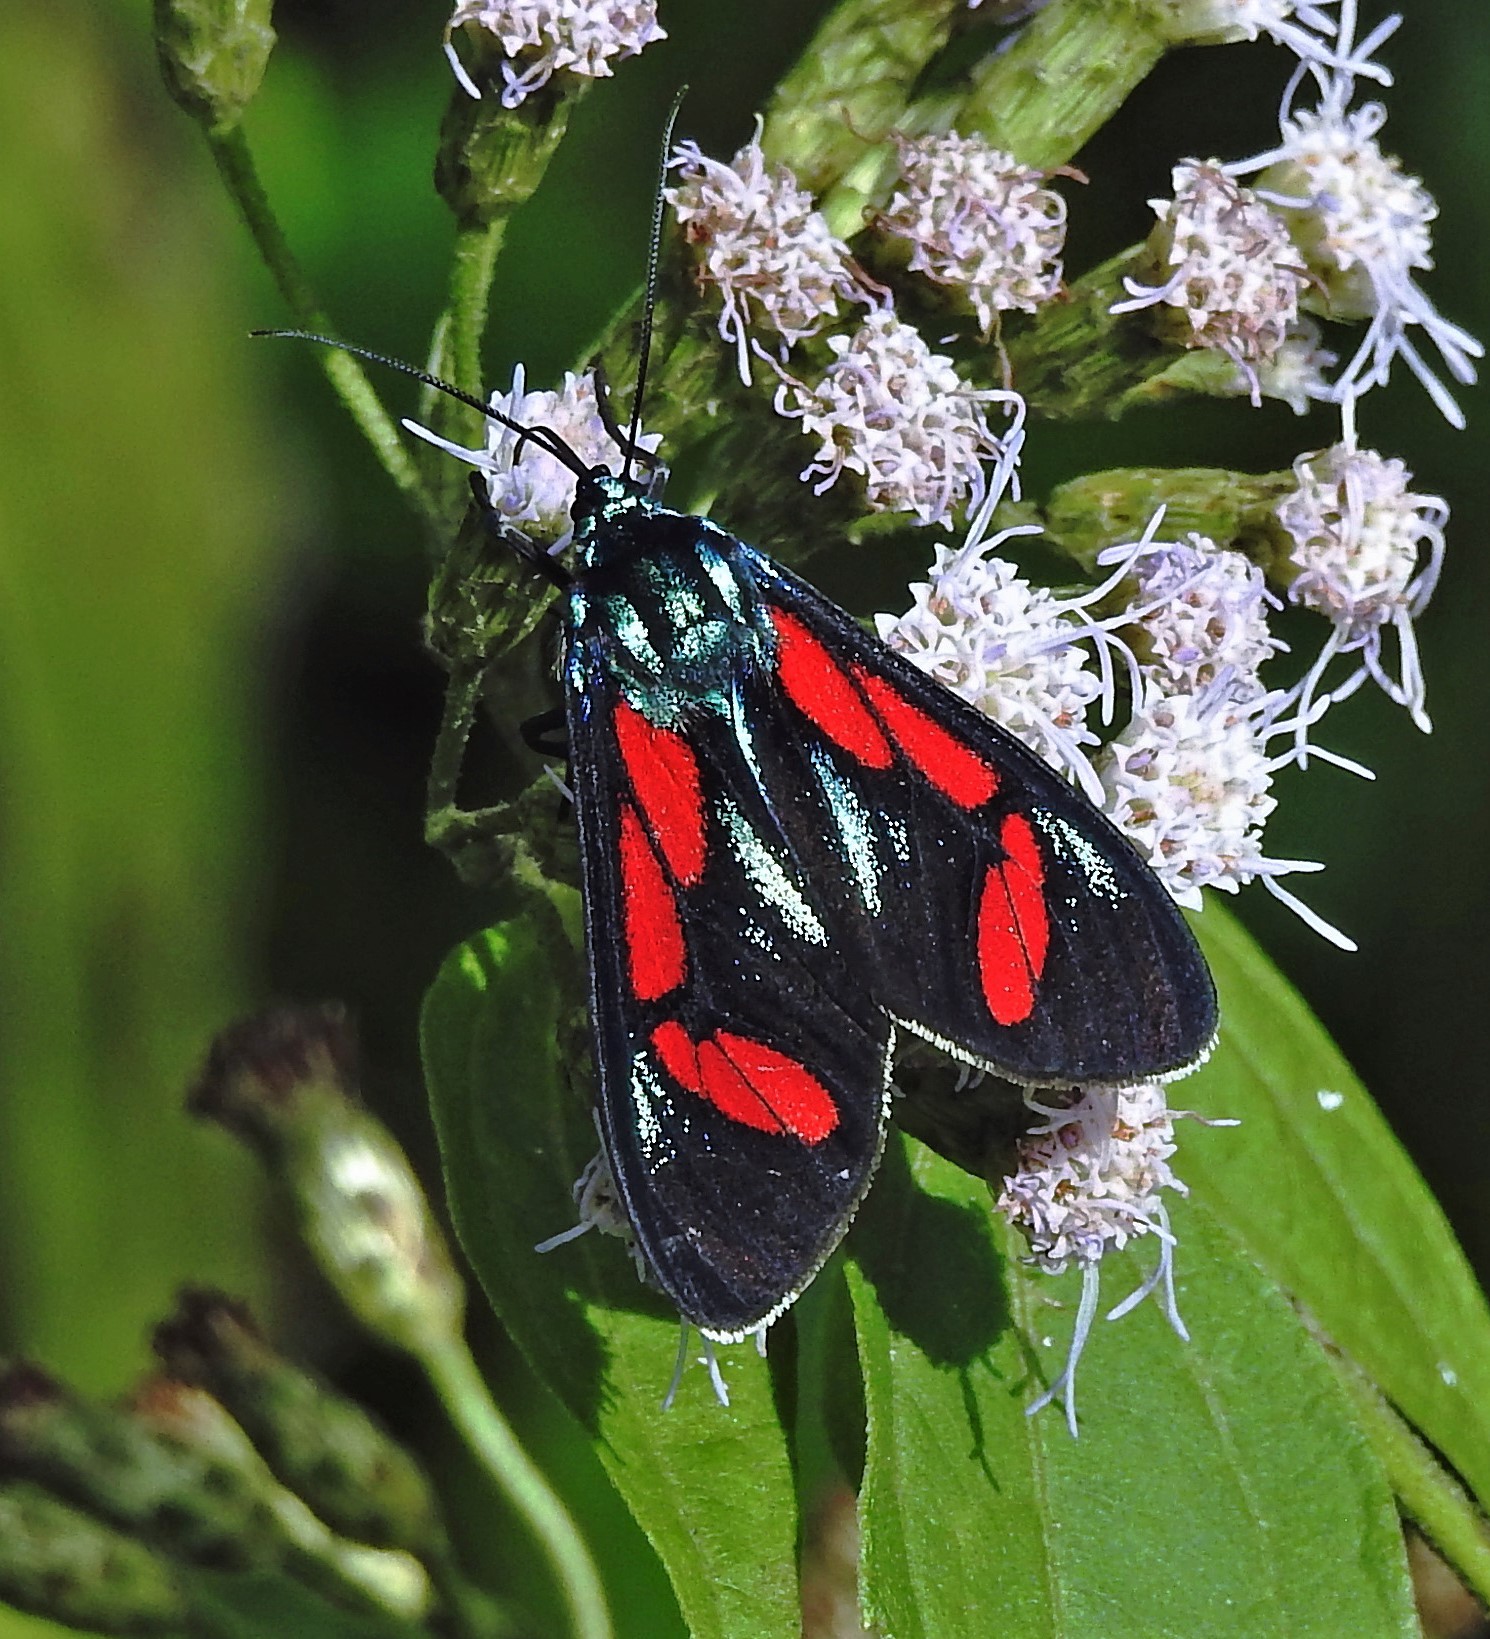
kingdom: Animalia
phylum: Arthropoda
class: Insecta
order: Lepidoptera
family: Erebidae
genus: Cyanopepla
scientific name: Cyanopepla pretiosa
